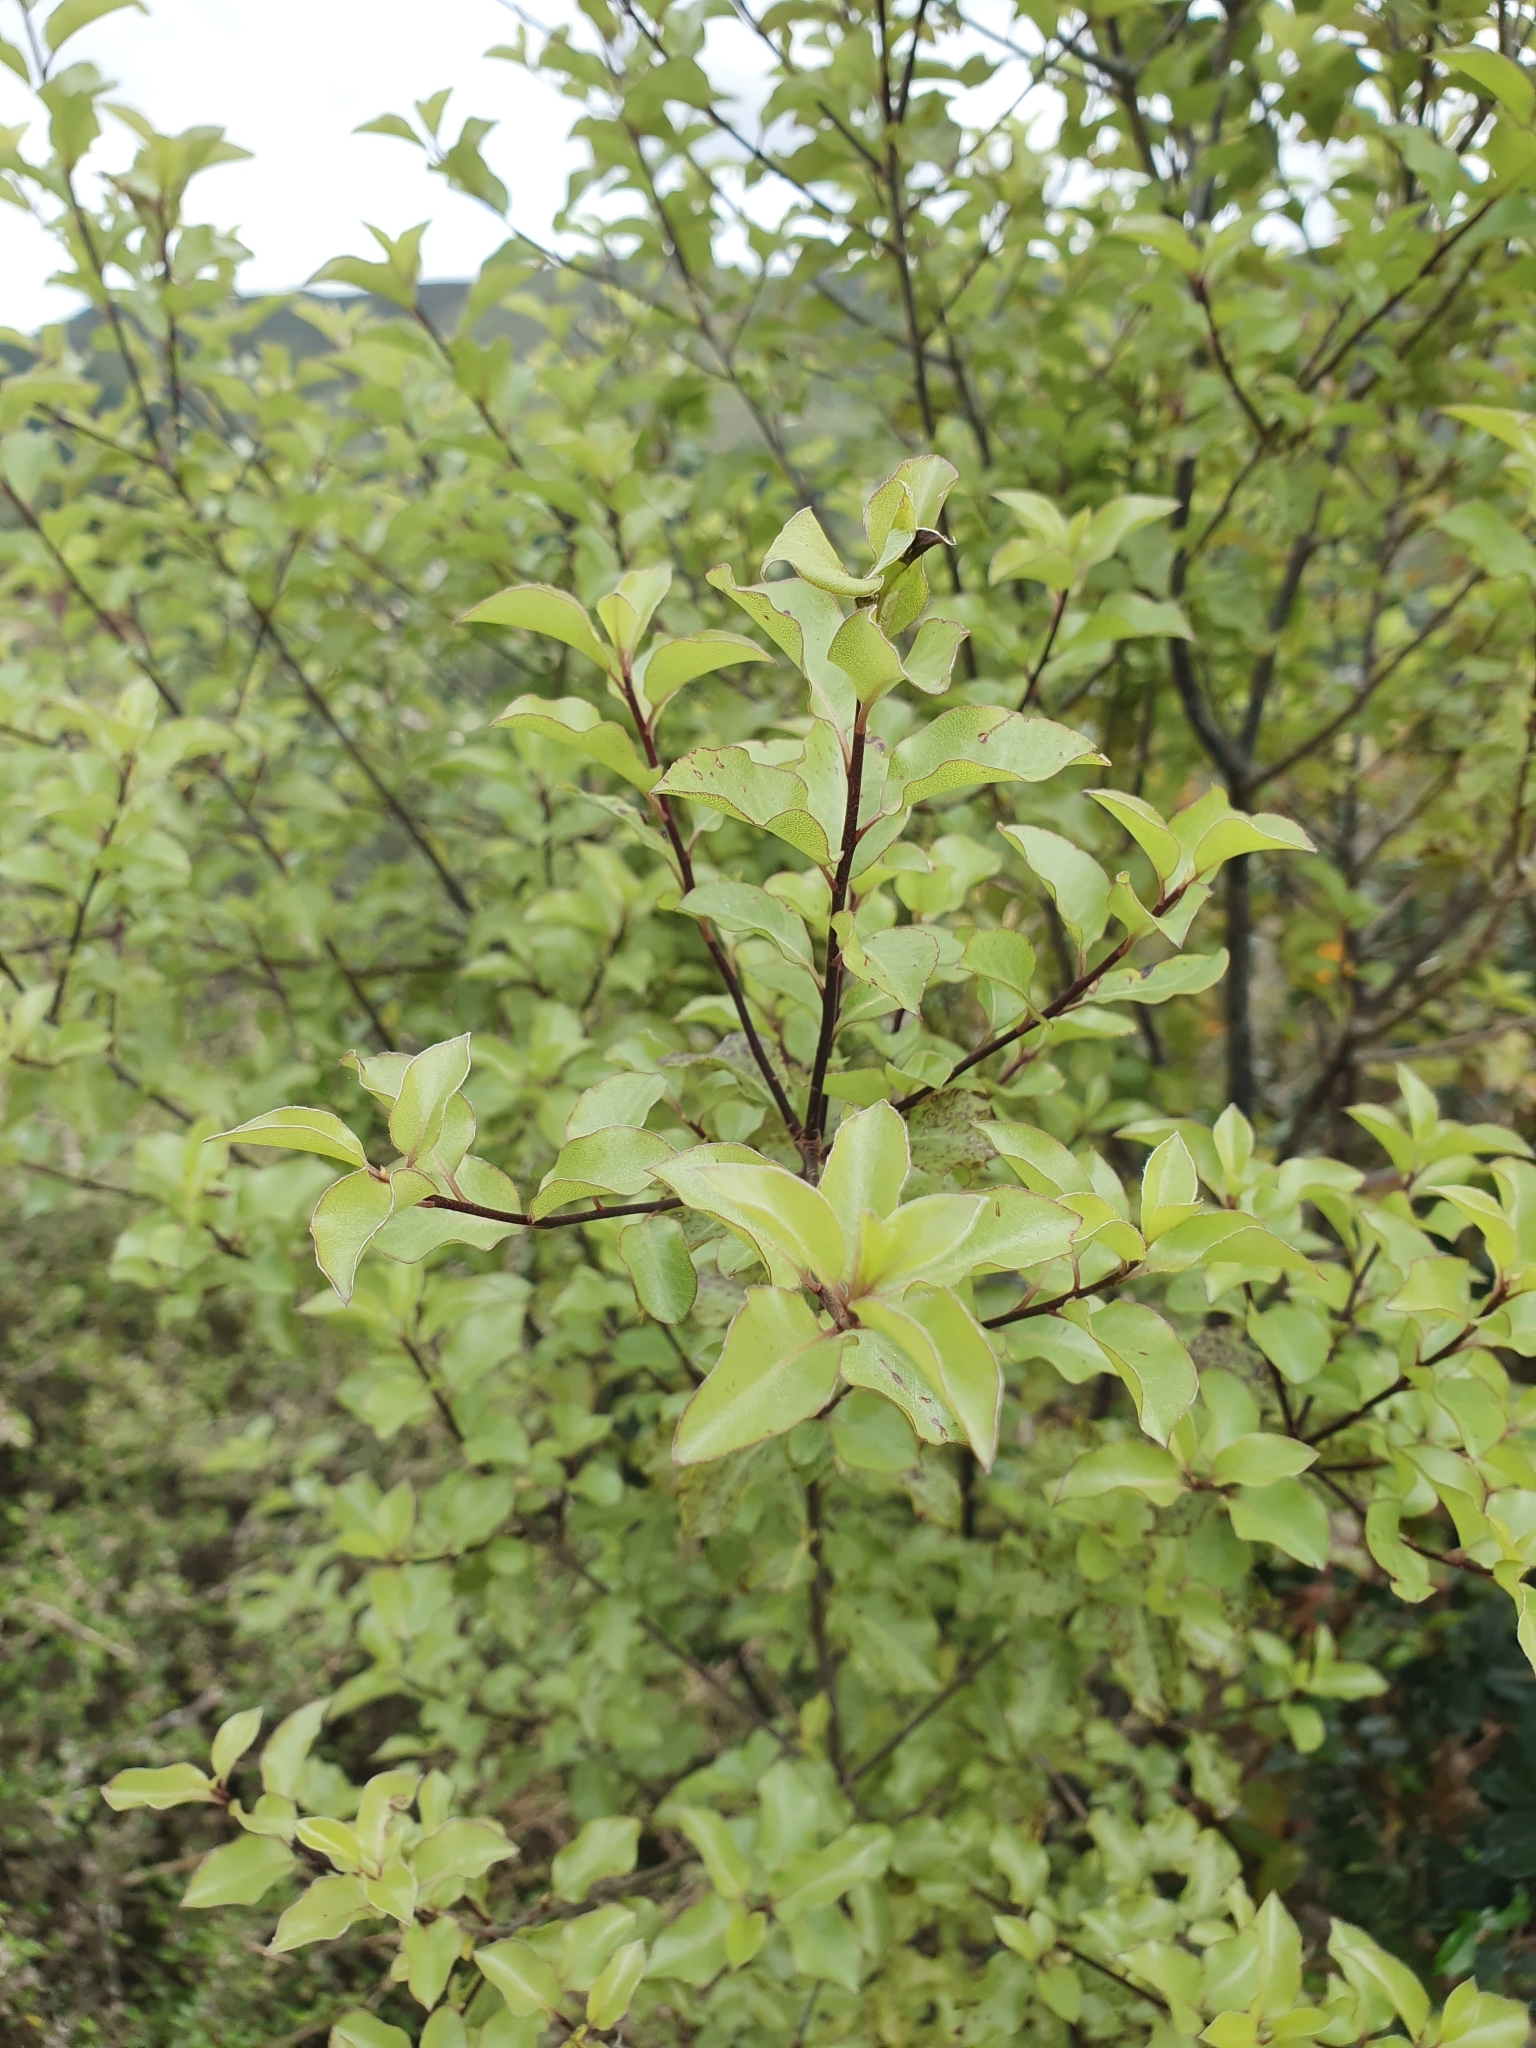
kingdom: Plantae
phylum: Tracheophyta
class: Magnoliopsida
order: Apiales
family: Pittosporaceae
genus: Pittosporum
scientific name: Pittosporum tenuifolium
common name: Kohuhu
